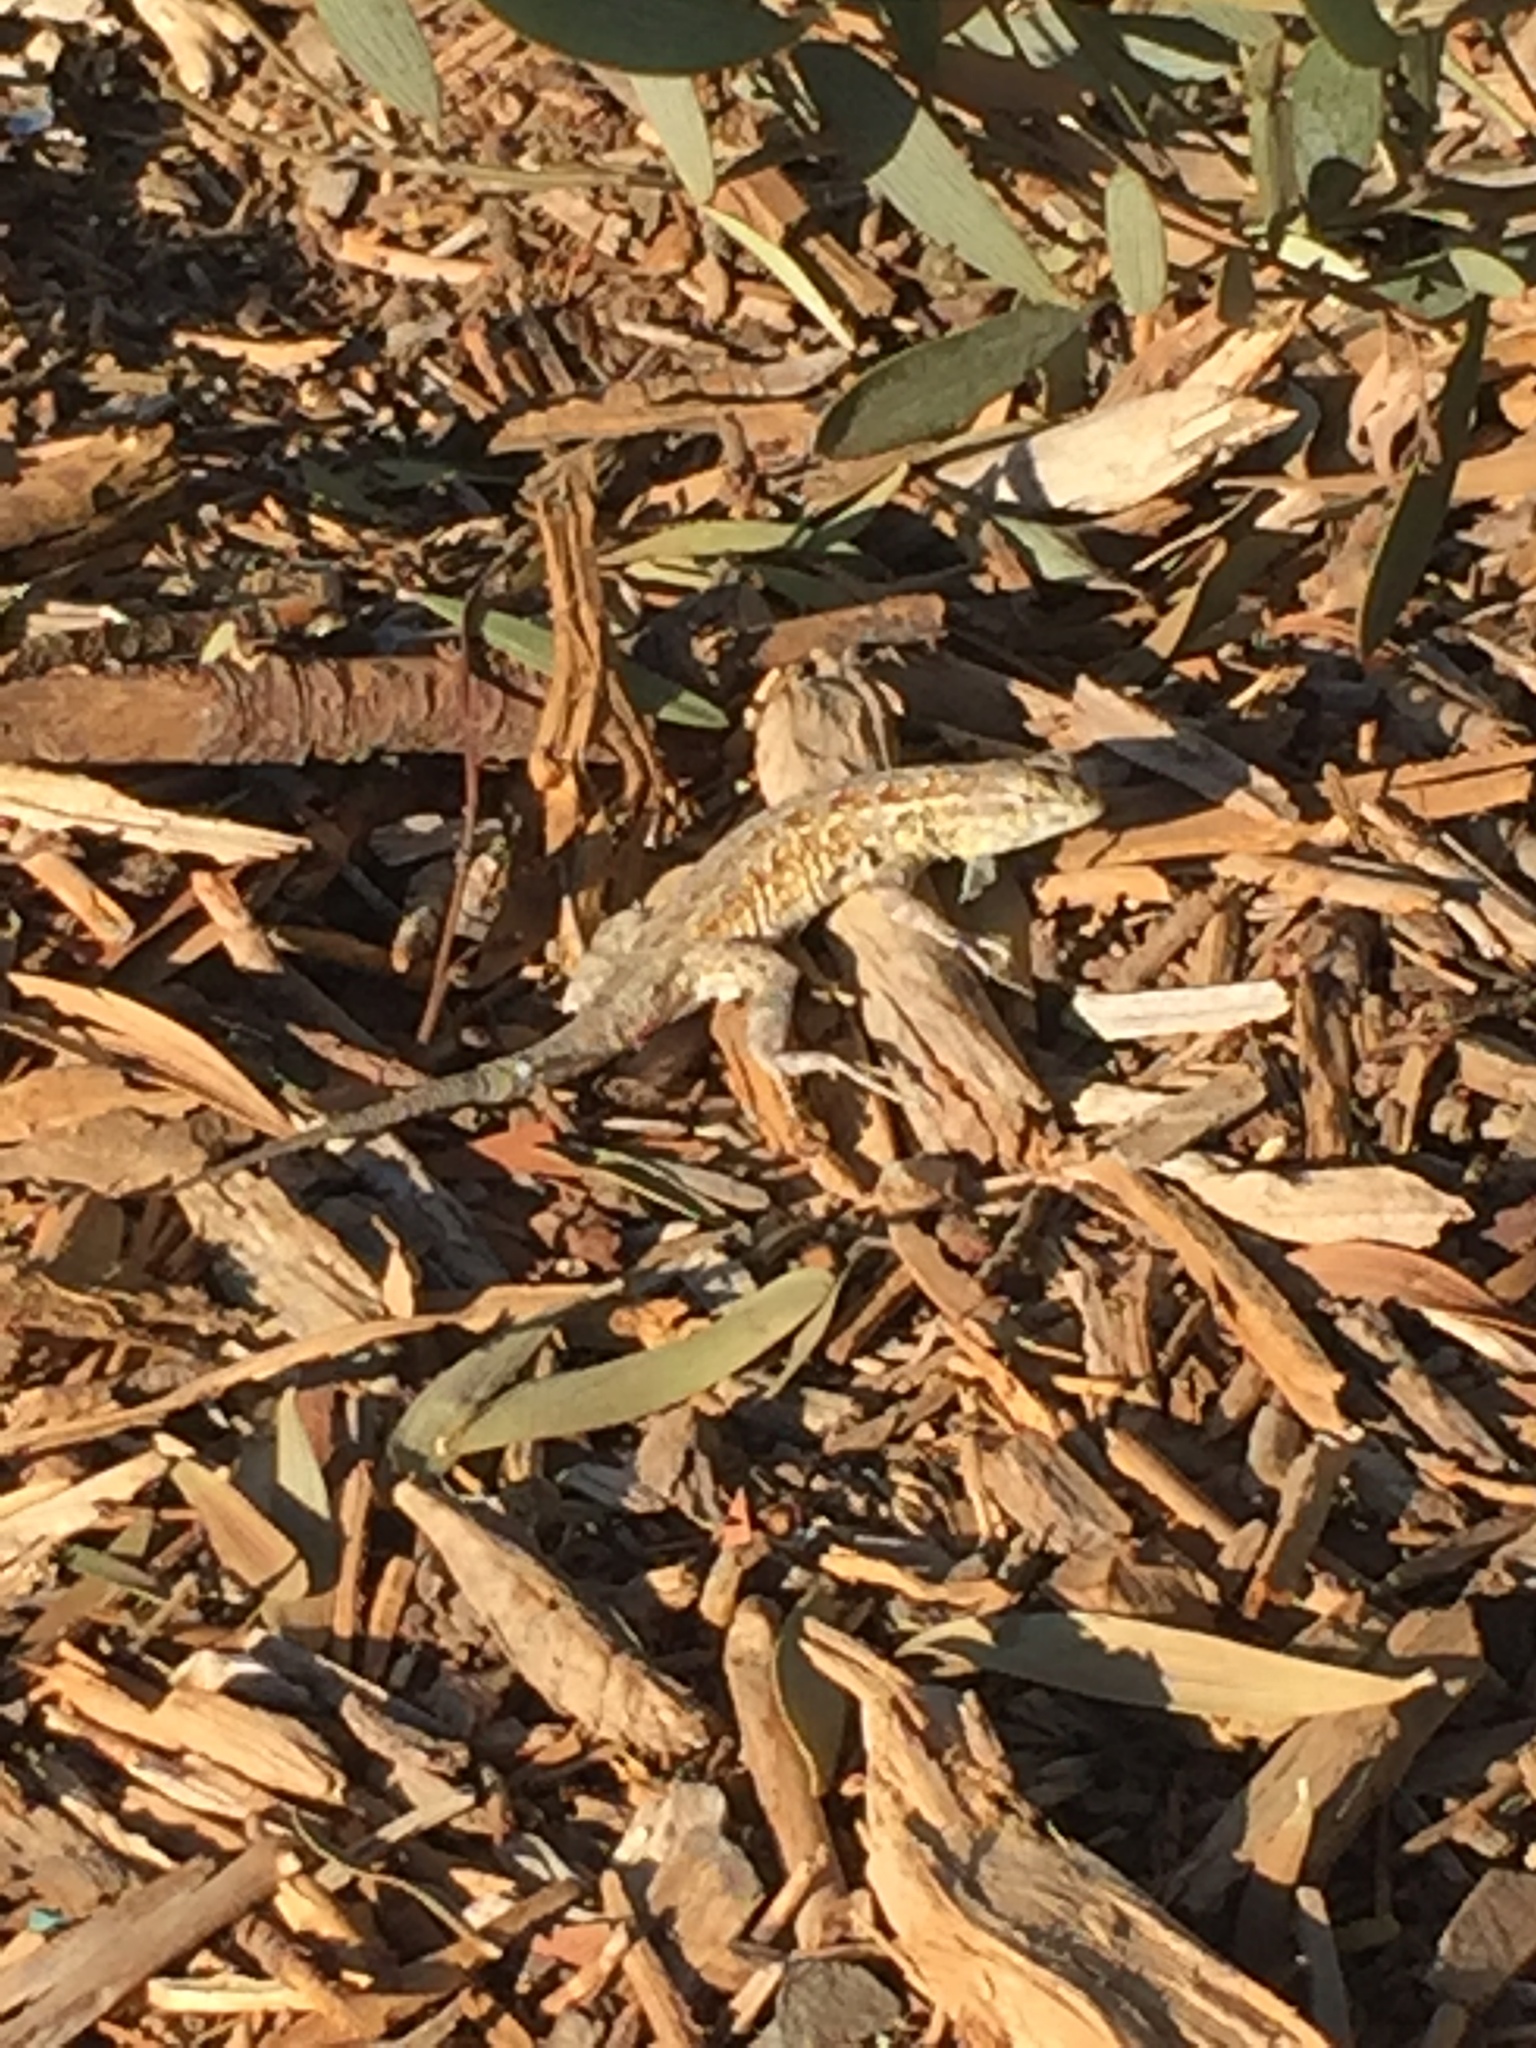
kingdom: Animalia
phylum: Chordata
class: Squamata
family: Phrynosomatidae
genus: Uta
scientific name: Uta stansburiana
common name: Side-blotched lizard
